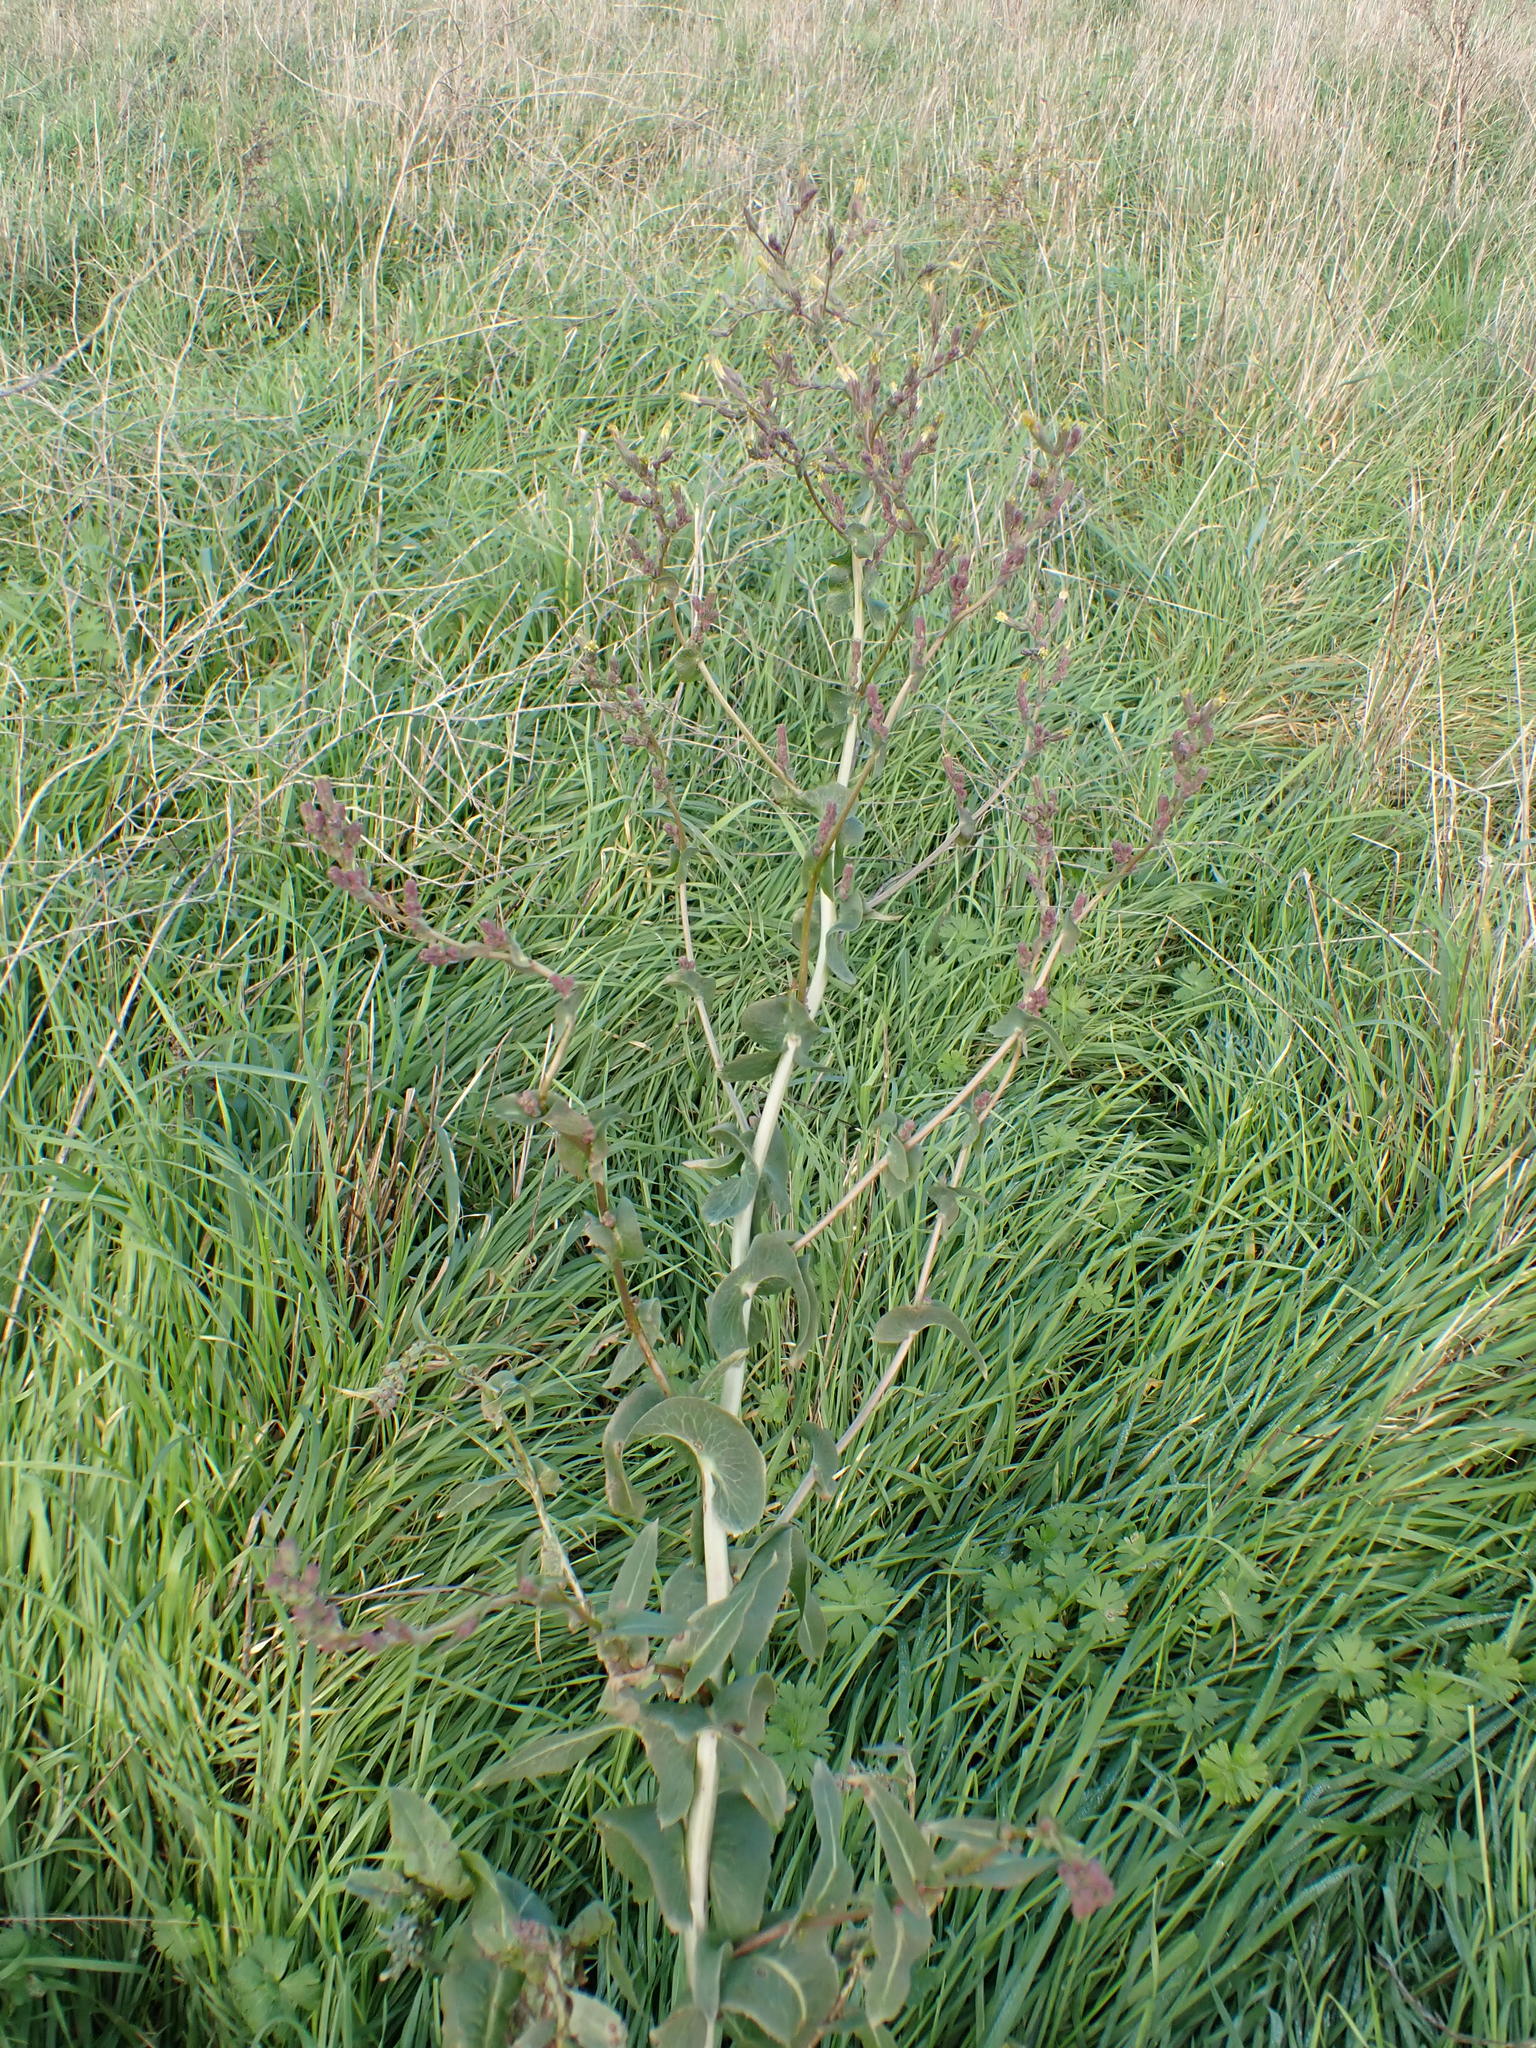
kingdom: Plantae
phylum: Tracheophyta
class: Magnoliopsida
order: Asterales
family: Asteraceae
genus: Lactuca
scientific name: Lactuca serriola
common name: Prickly lettuce
